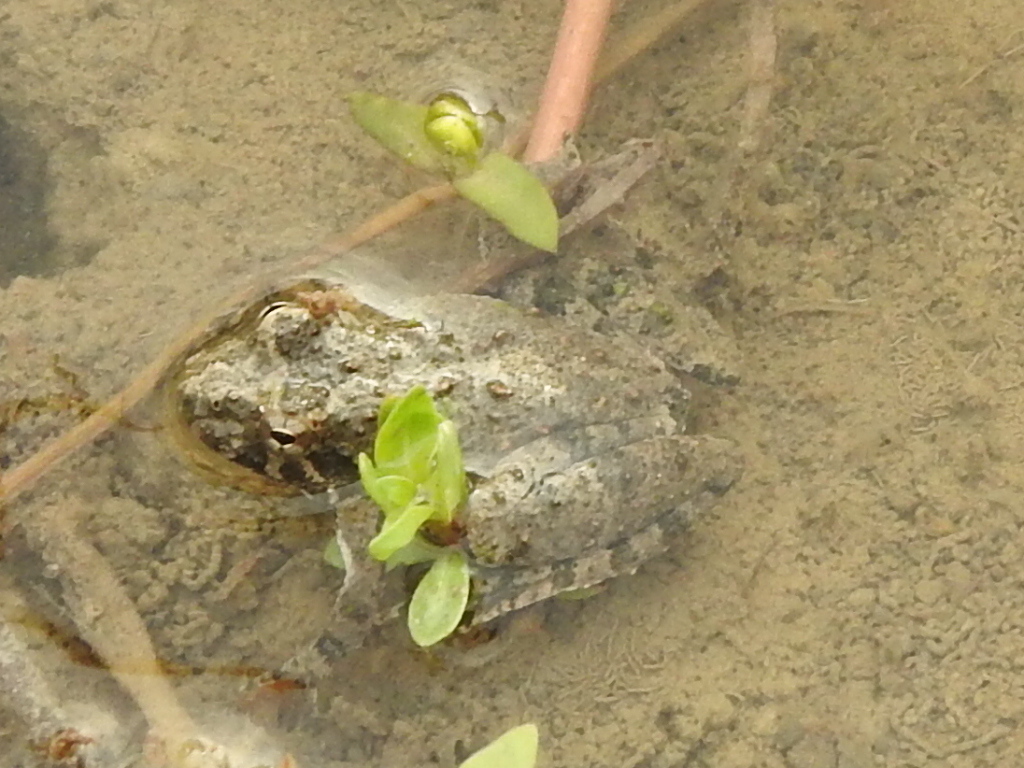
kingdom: Animalia
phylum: Chordata
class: Amphibia
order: Anura
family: Hylidae
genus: Acris
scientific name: Acris blanchardi
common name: Blanchard's cricket frog
